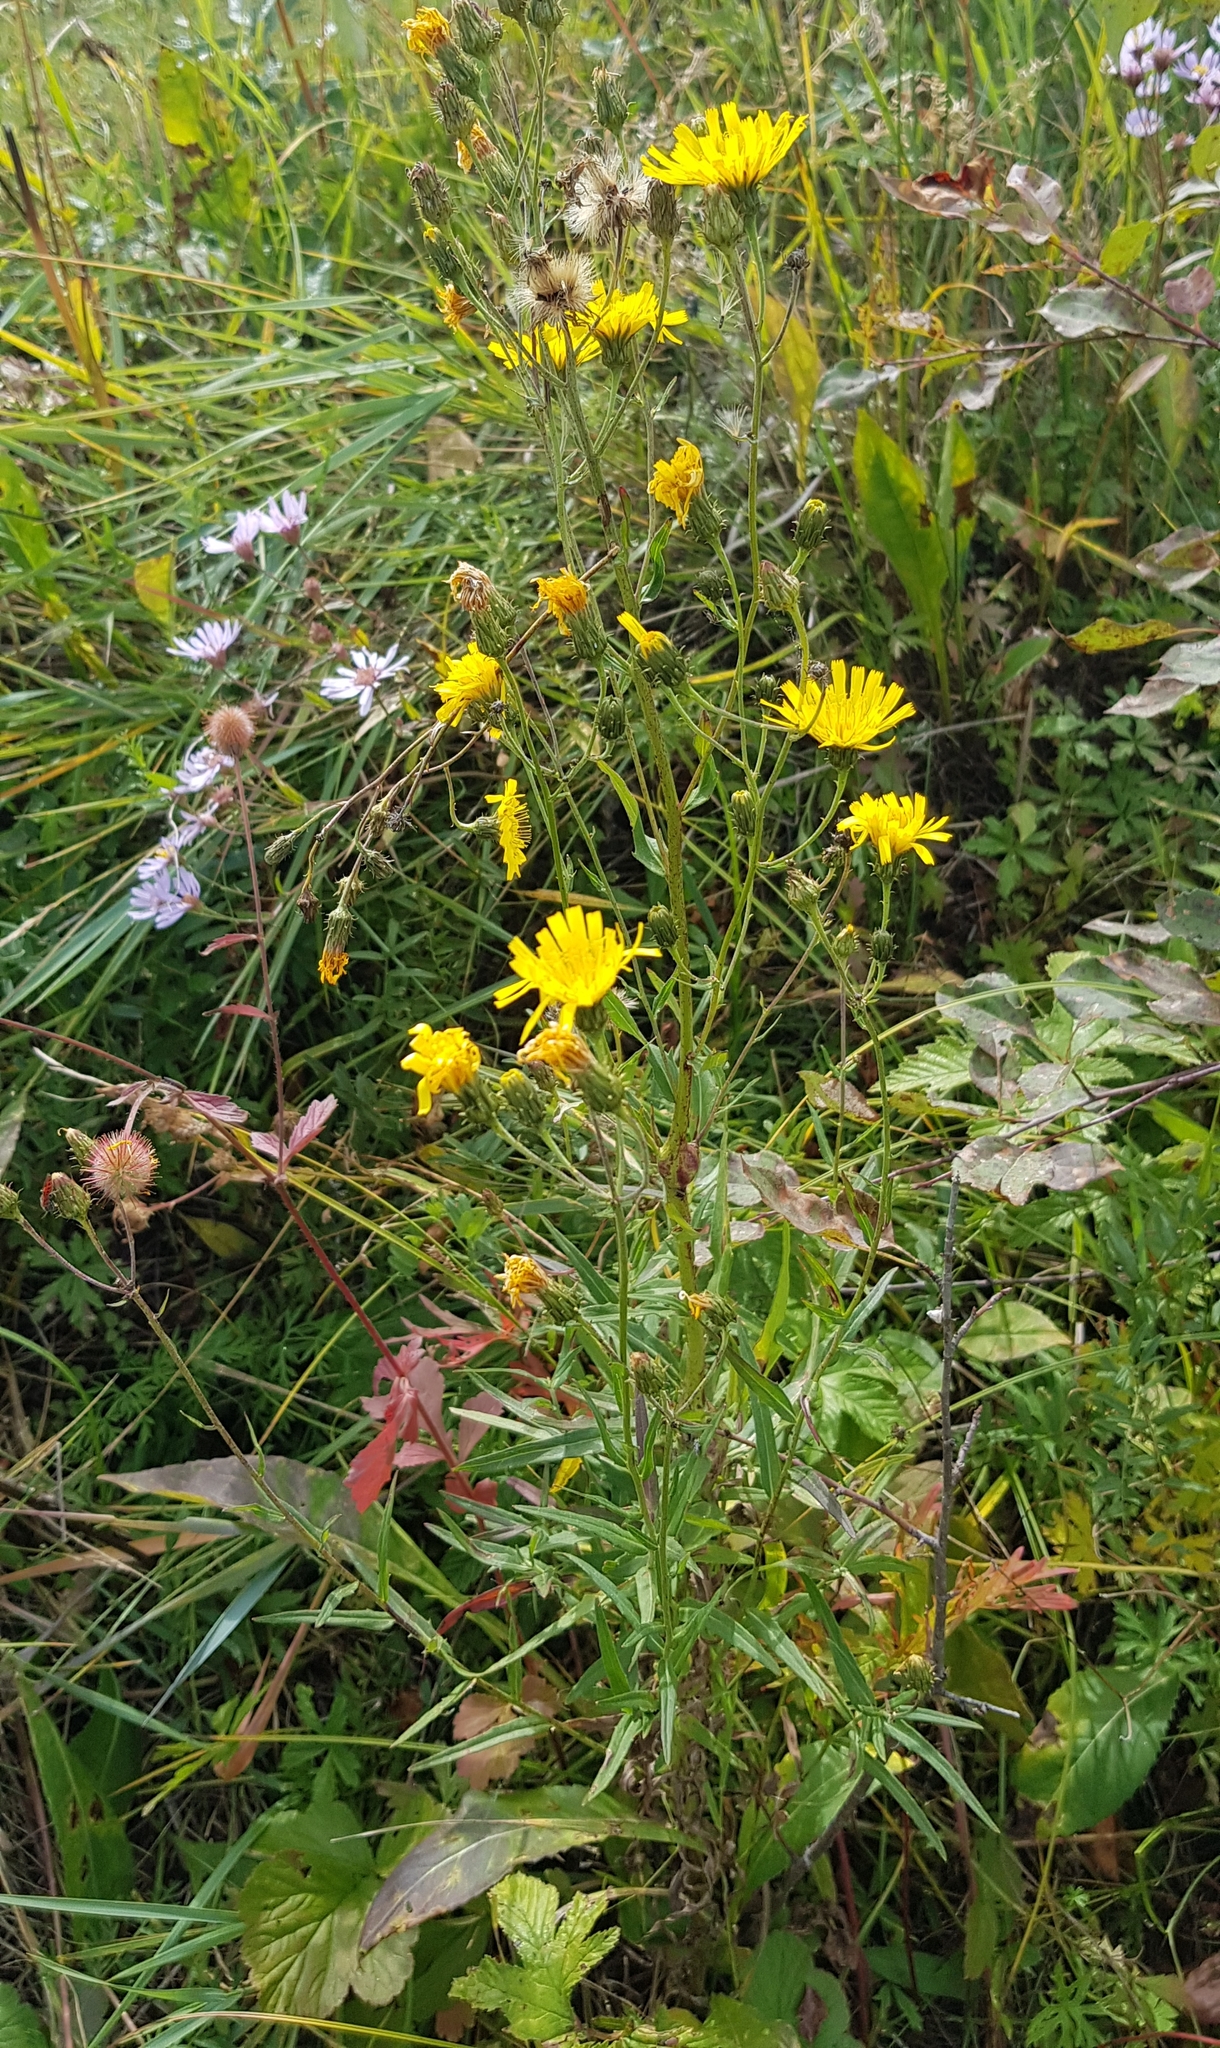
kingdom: Plantae
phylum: Tracheophyta
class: Magnoliopsida
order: Asterales
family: Asteraceae
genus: Hieracium
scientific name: Hieracium umbellatum
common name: Northern hawkweed
